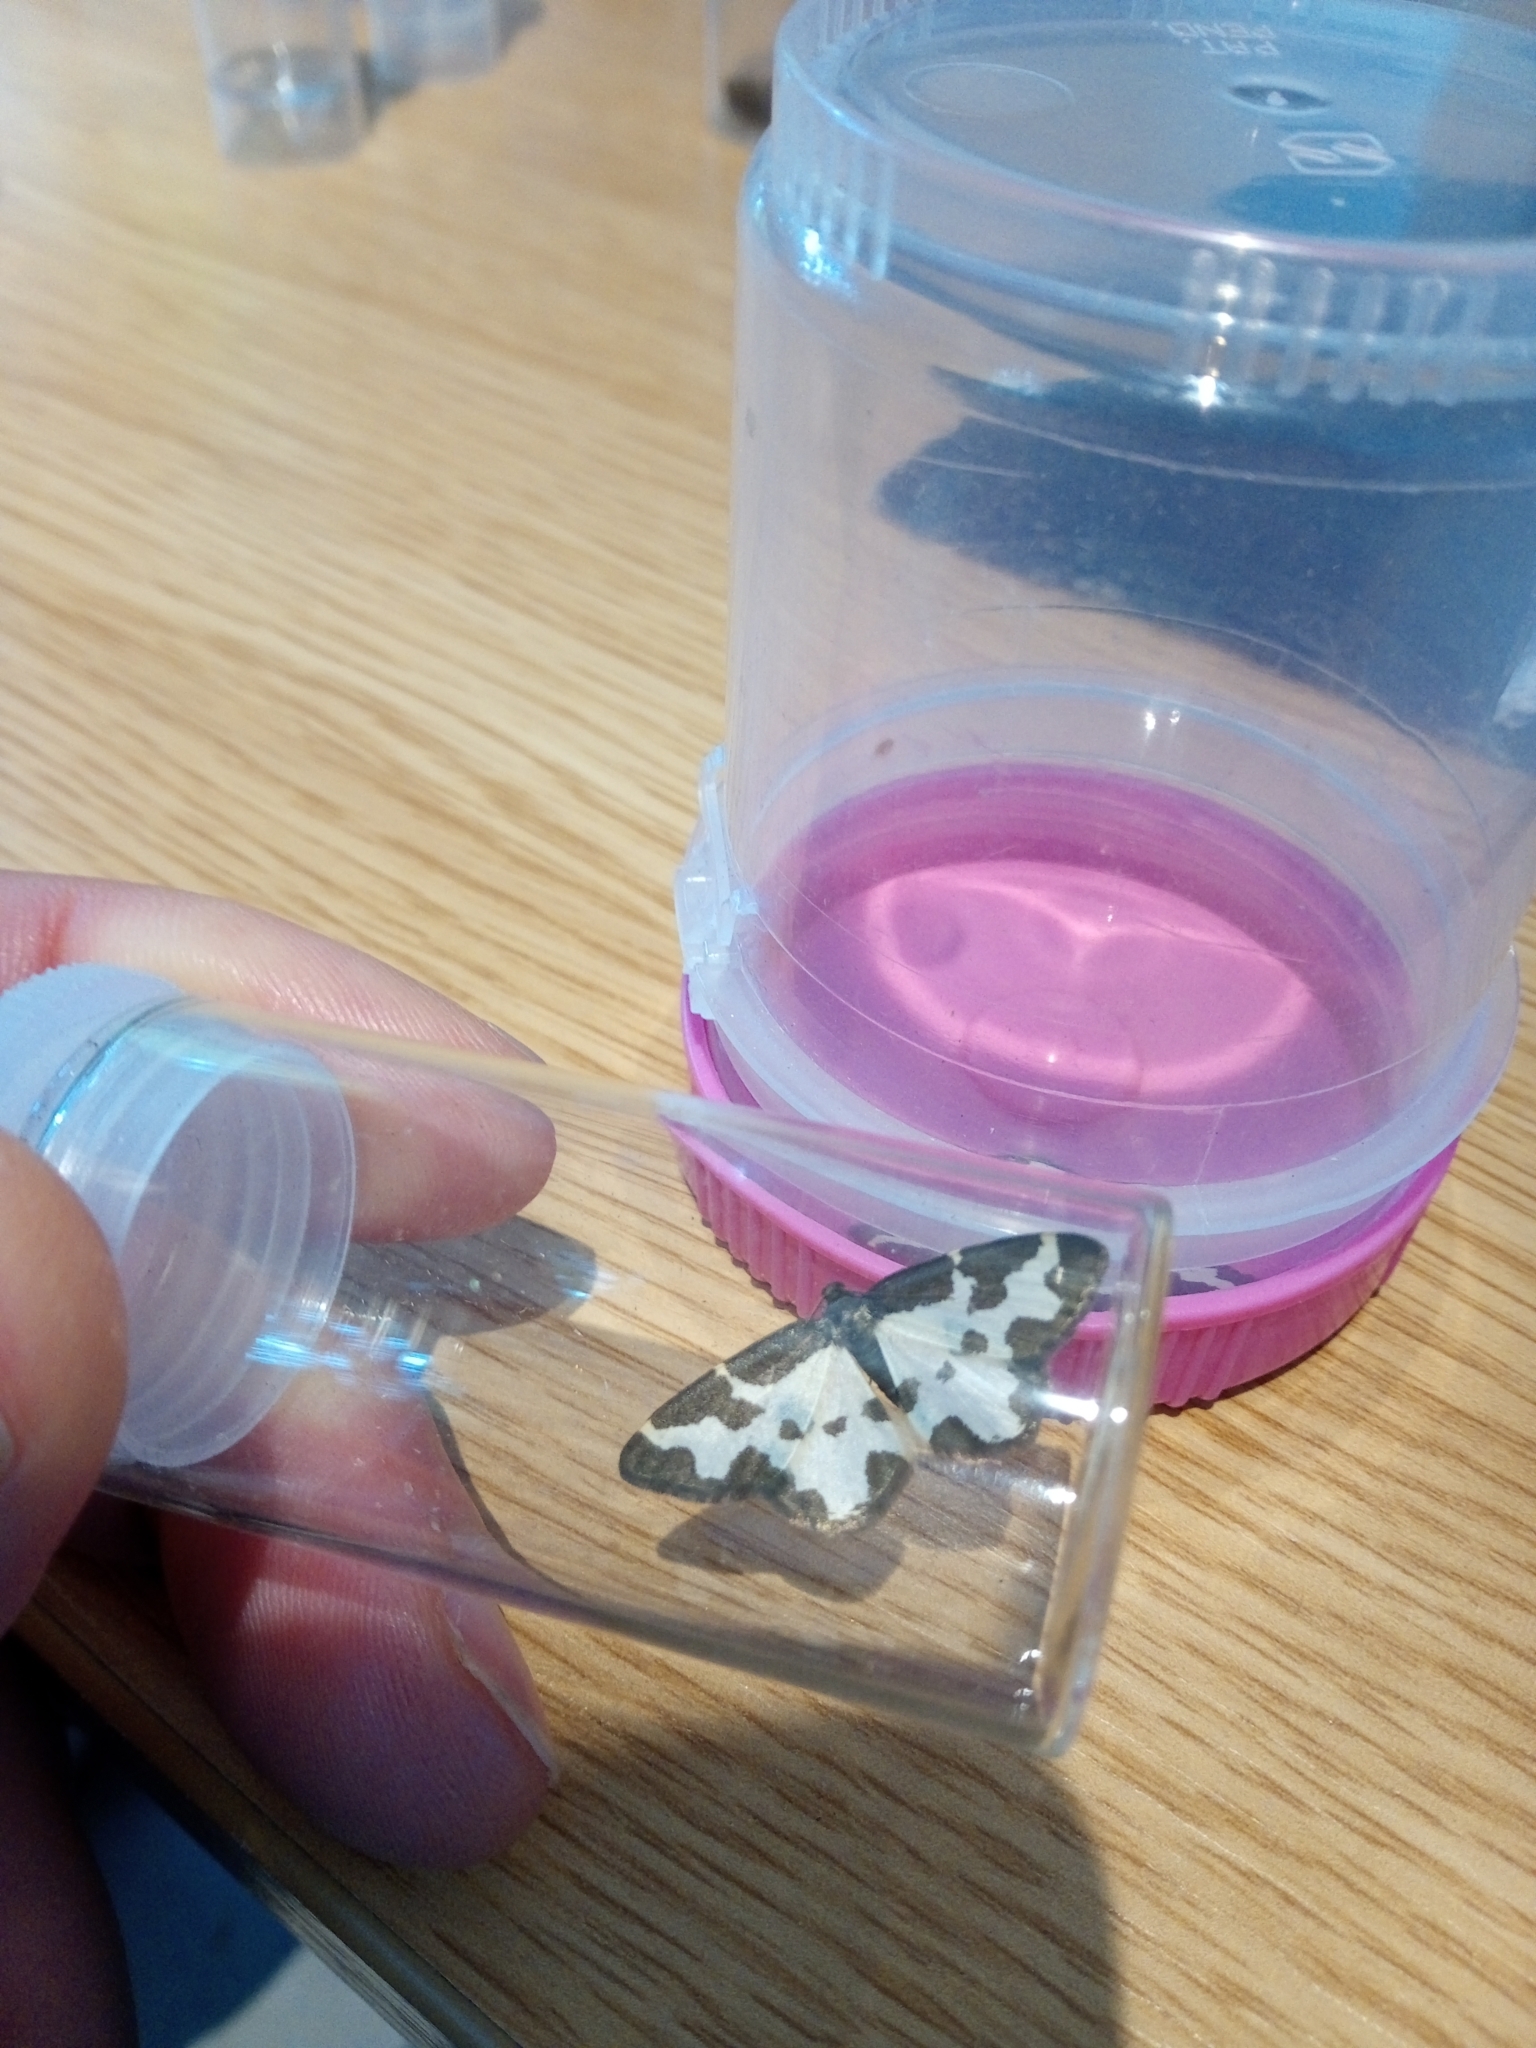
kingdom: Animalia
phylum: Arthropoda
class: Insecta
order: Lepidoptera
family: Geometridae
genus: Lomaspilis
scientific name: Lomaspilis marginata
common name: Clouded border
